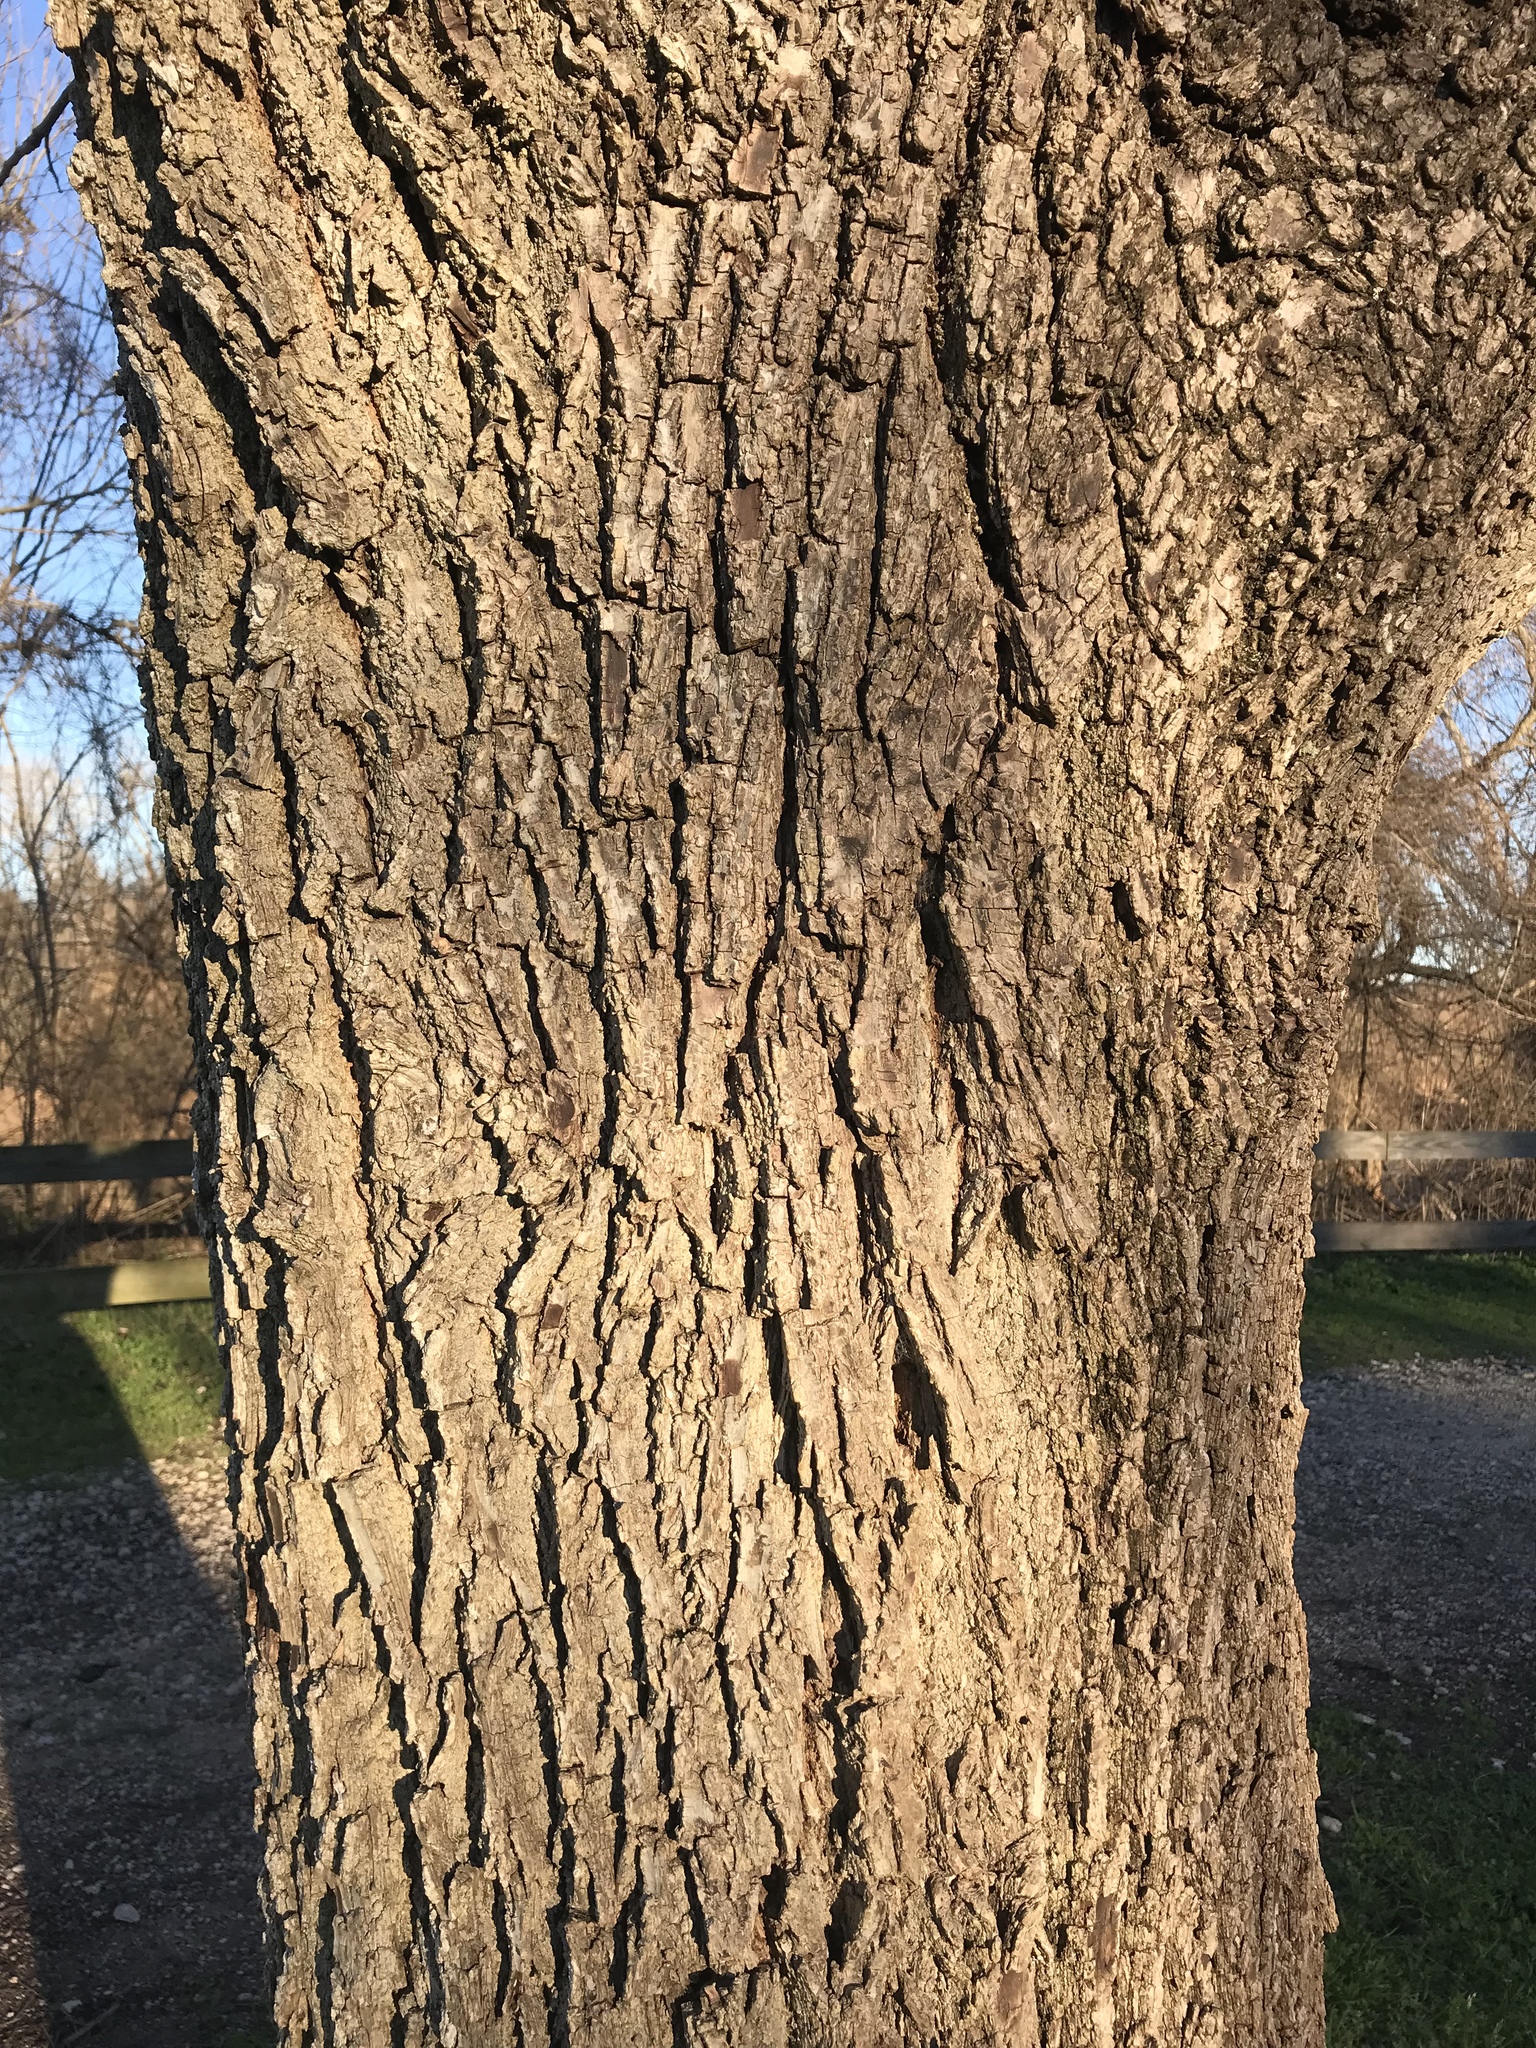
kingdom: Plantae
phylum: Tracheophyta
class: Magnoliopsida
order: Fagales
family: Juglandaceae
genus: Juglans
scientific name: Juglans nigra
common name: Black walnut
